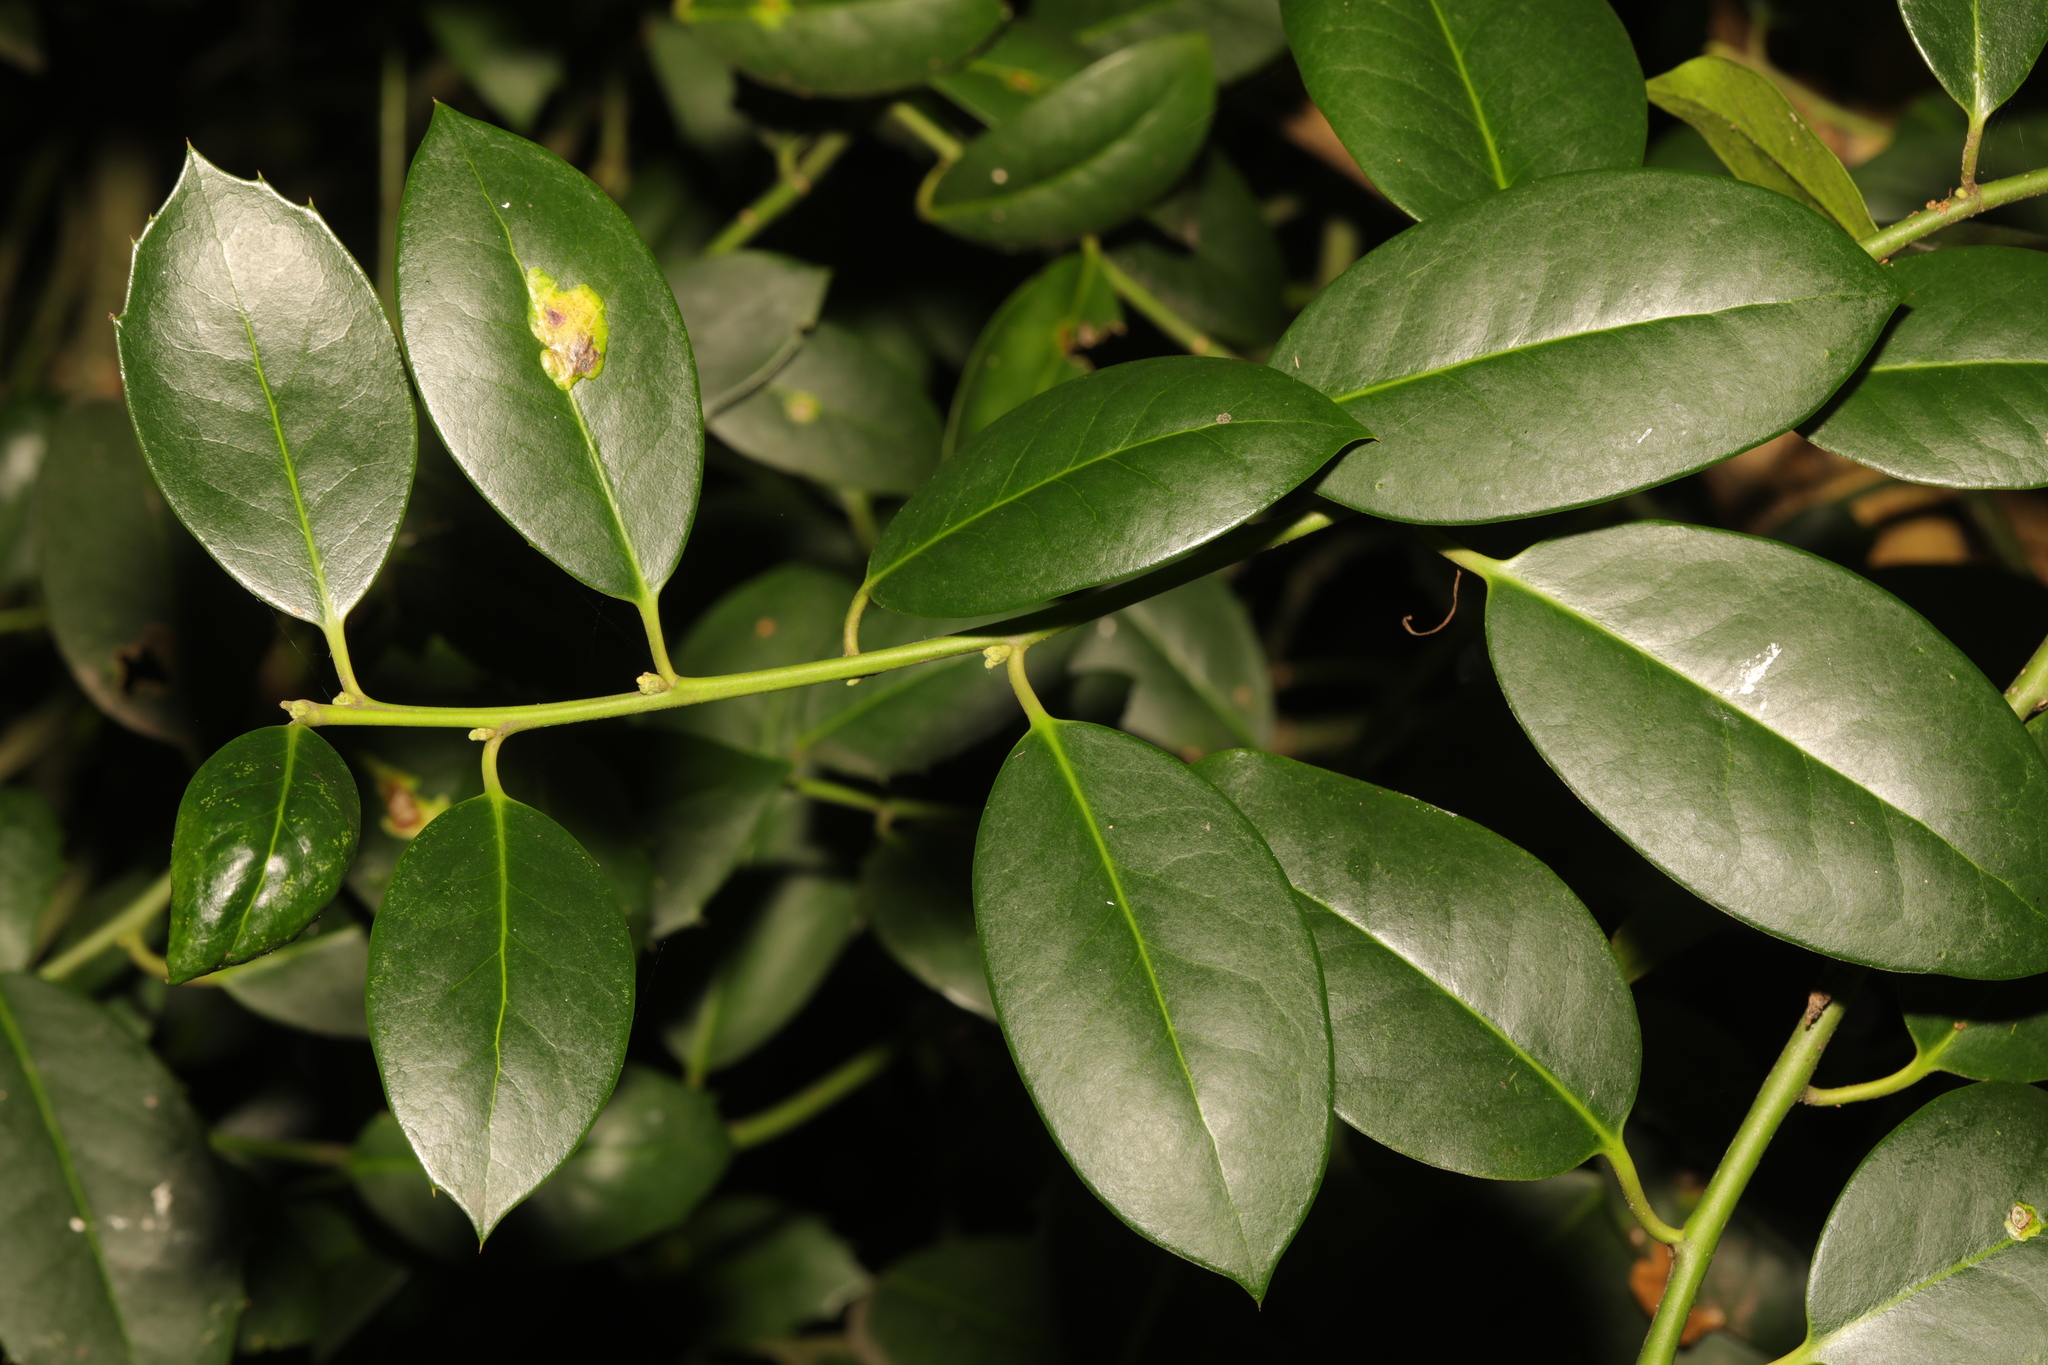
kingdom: Plantae
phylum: Tracheophyta
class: Magnoliopsida
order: Aquifoliales
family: Aquifoliaceae
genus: Ilex
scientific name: Ilex aquifolium
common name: English holly
